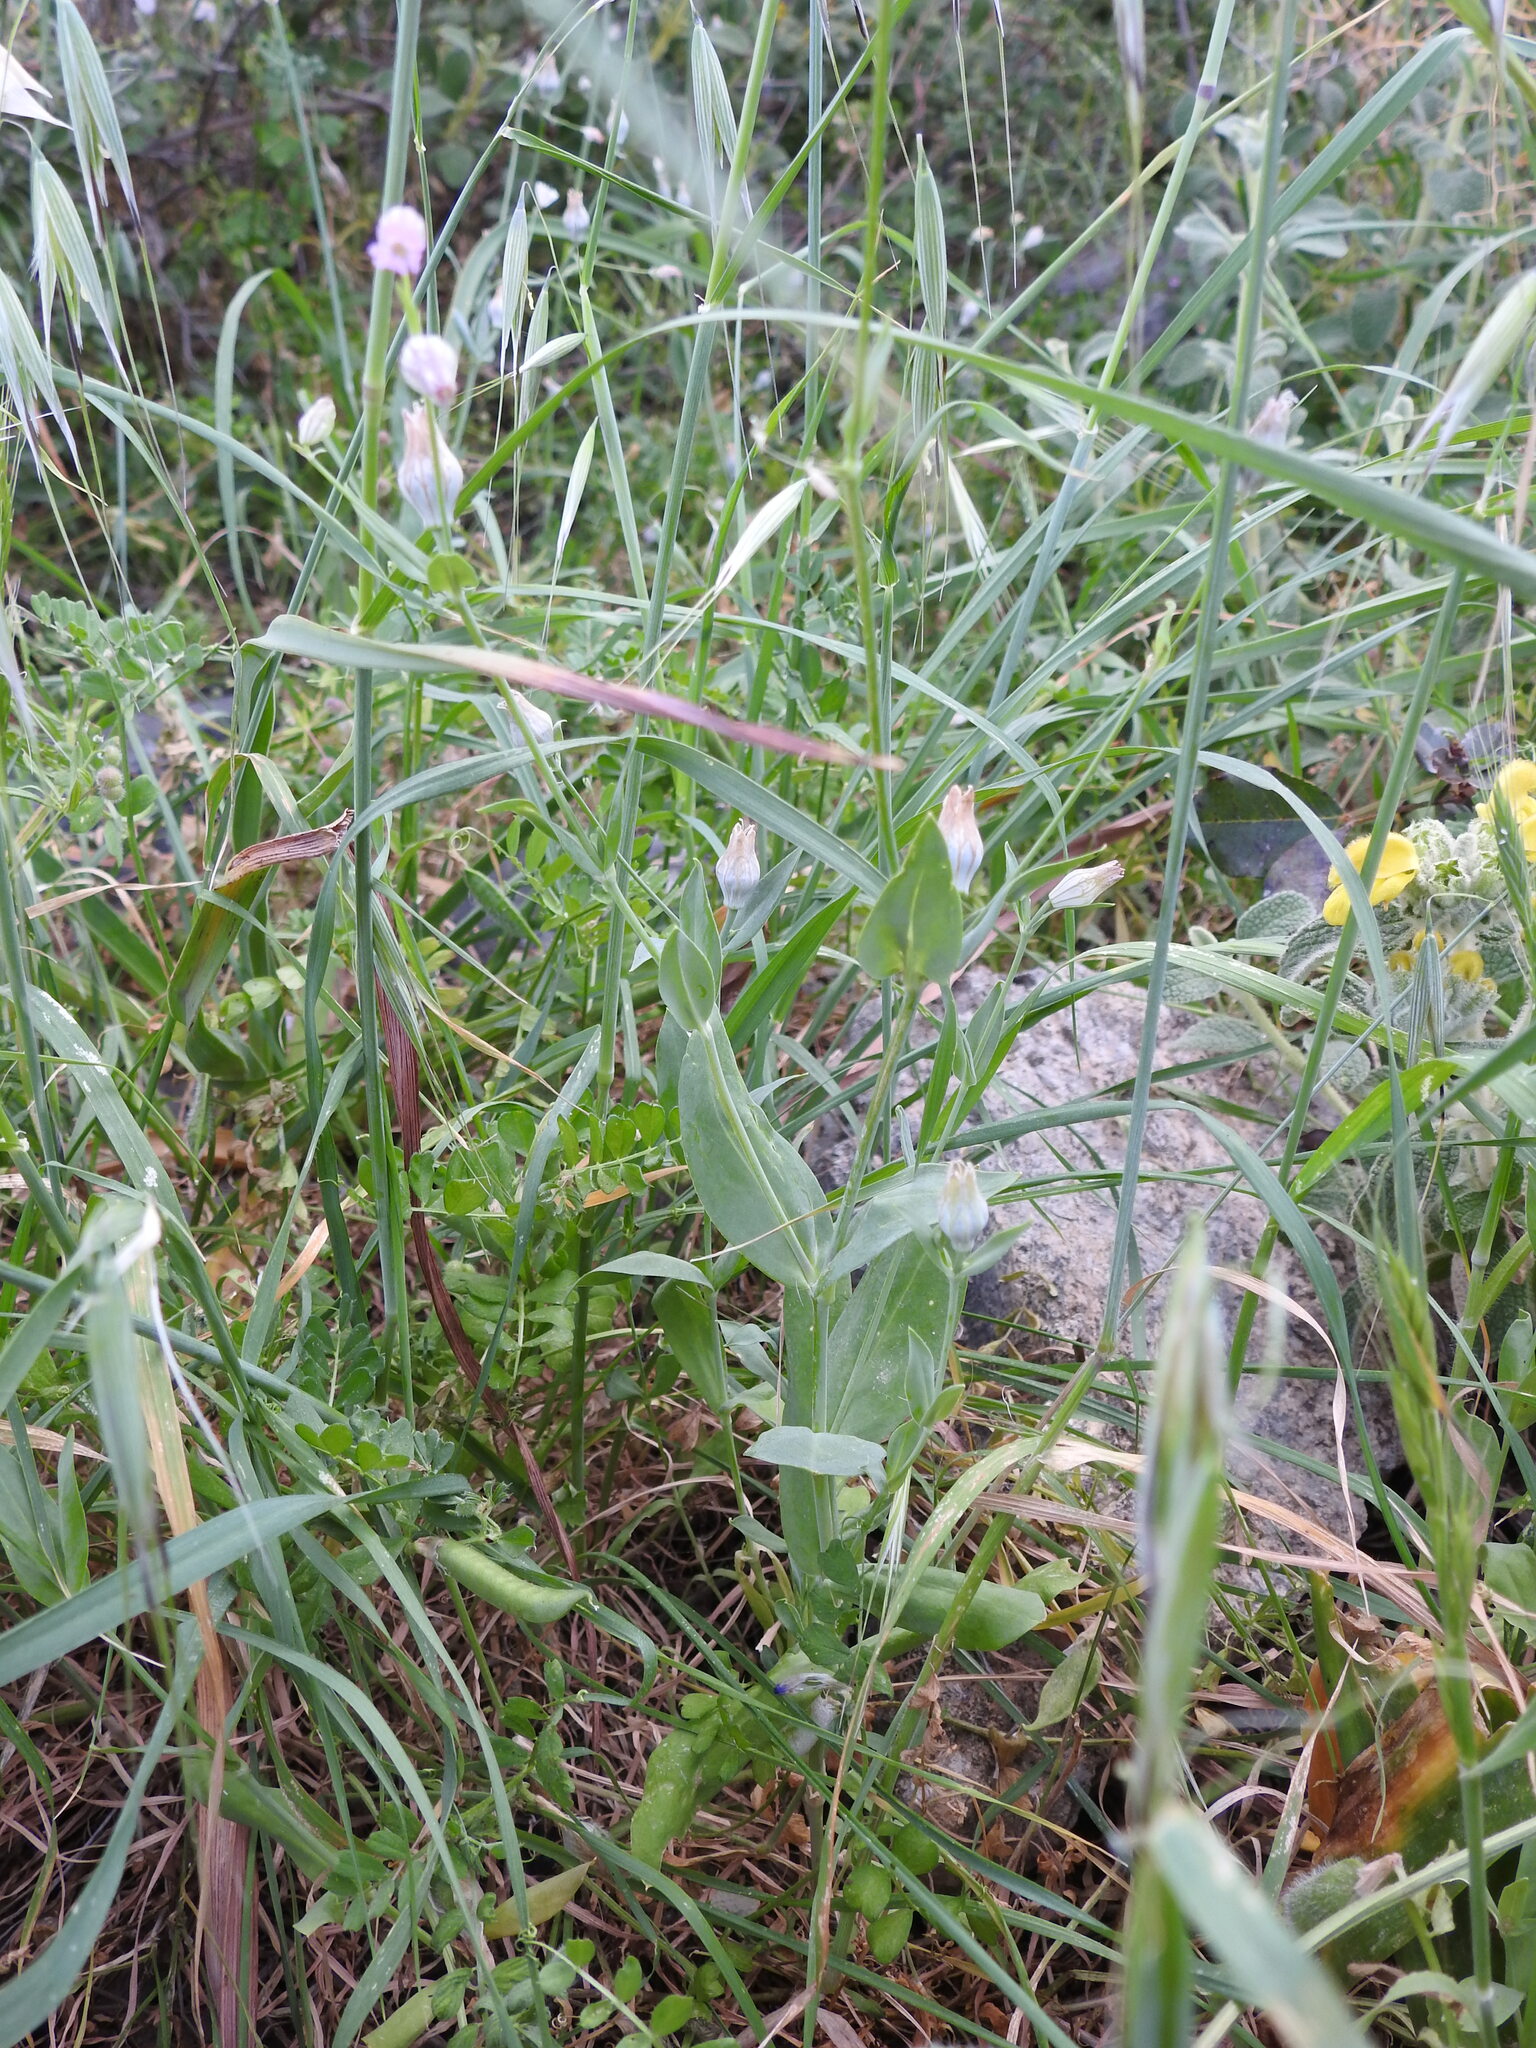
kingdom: Plantae
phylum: Tracheophyta
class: Magnoliopsida
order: Caryophyllales
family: Caryophyllaceae
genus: Silene
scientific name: Silene behen
